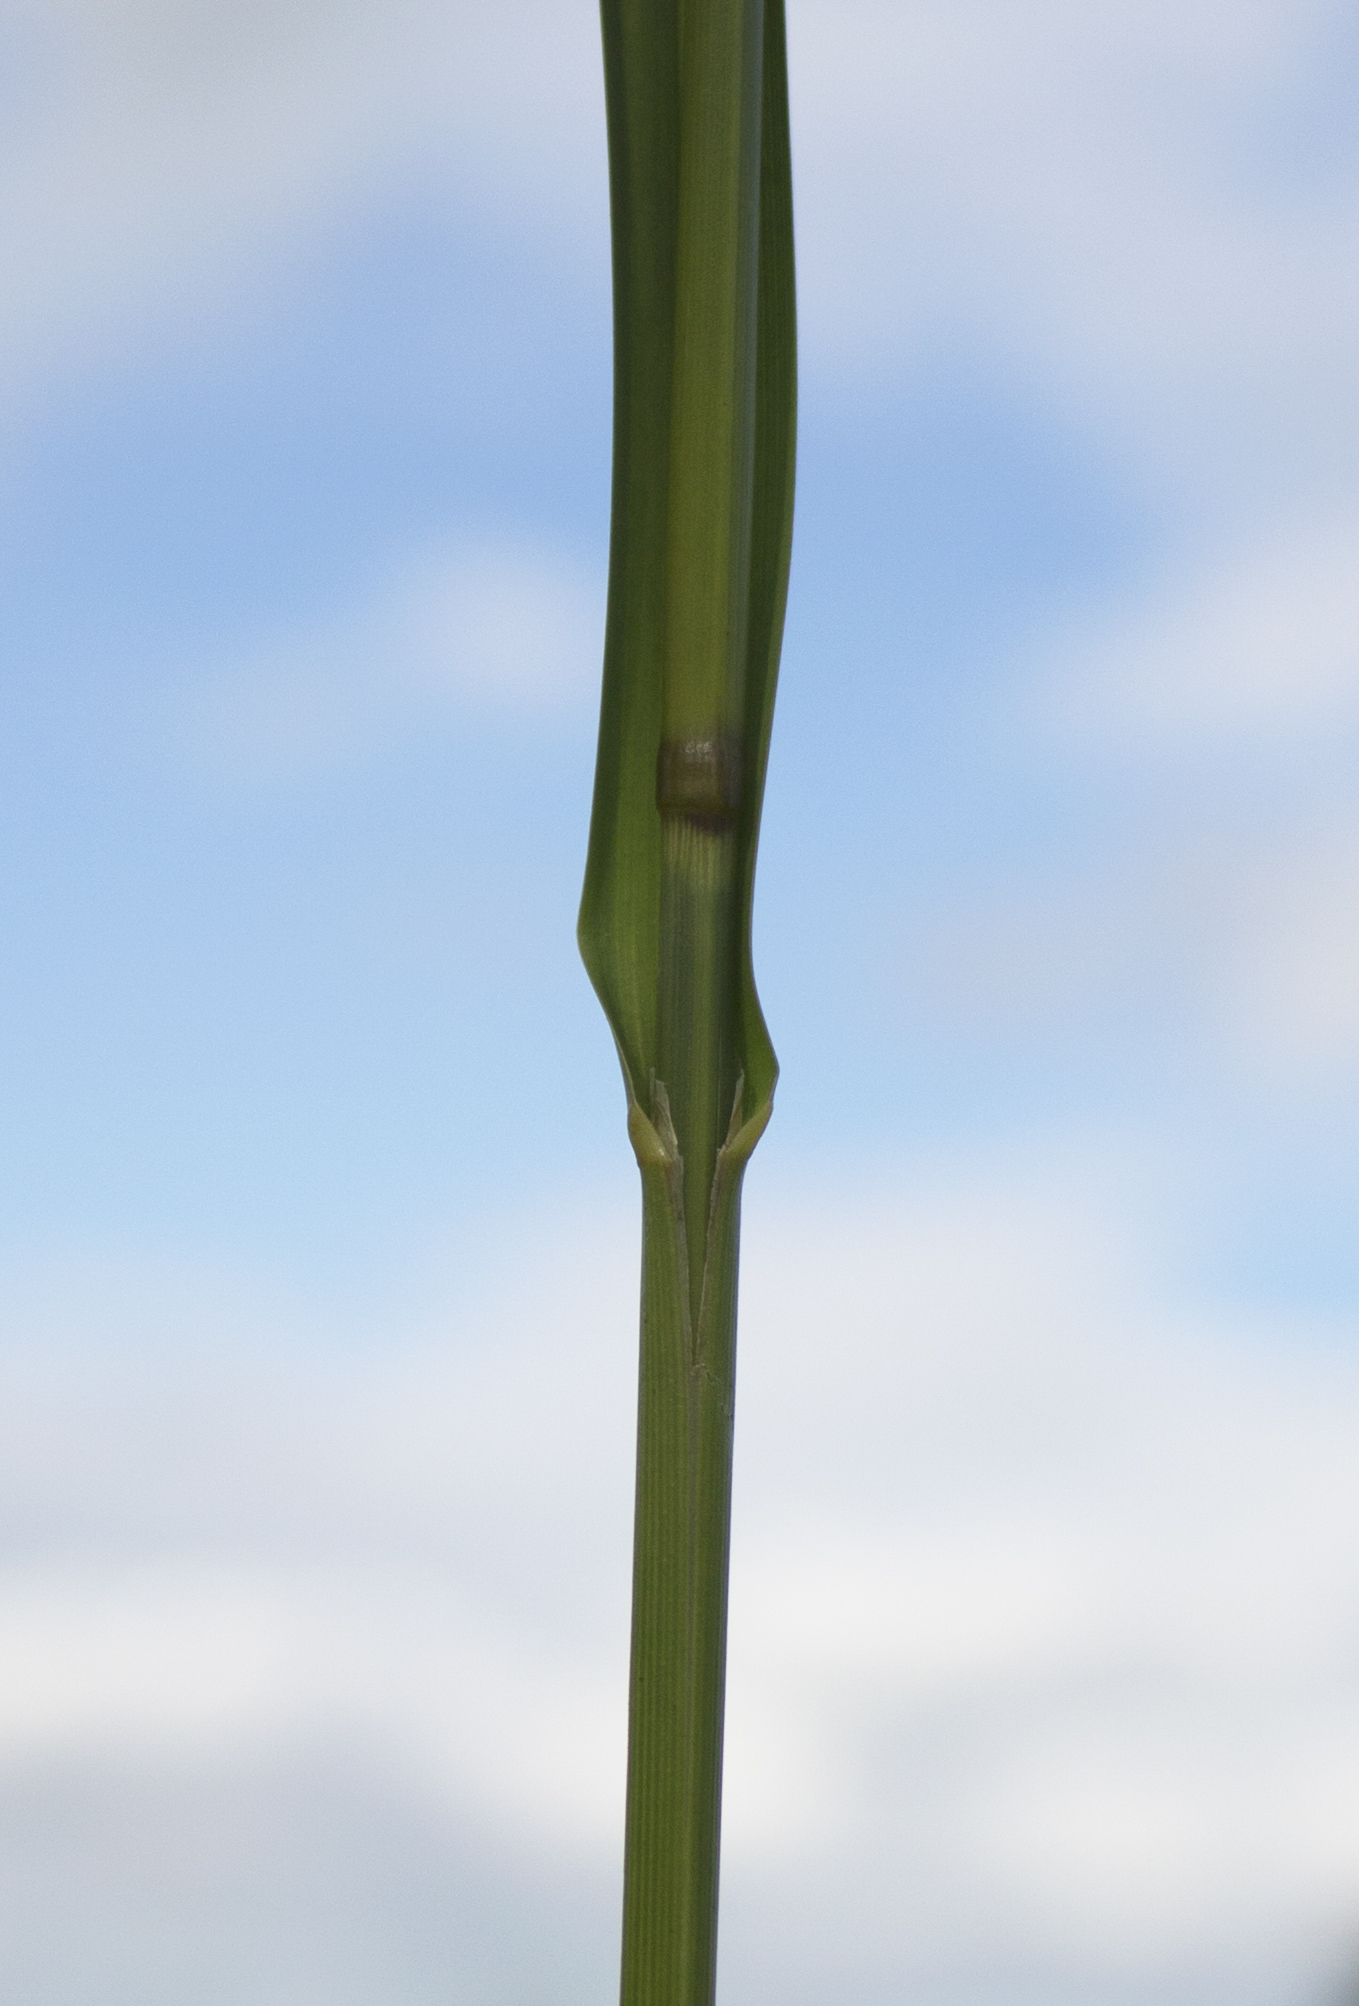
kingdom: Plantae
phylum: Tracheophyta
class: Liliopsida
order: Poales
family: Poaceae
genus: Glyceria
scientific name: Glyceria grandis
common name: American glyceria
